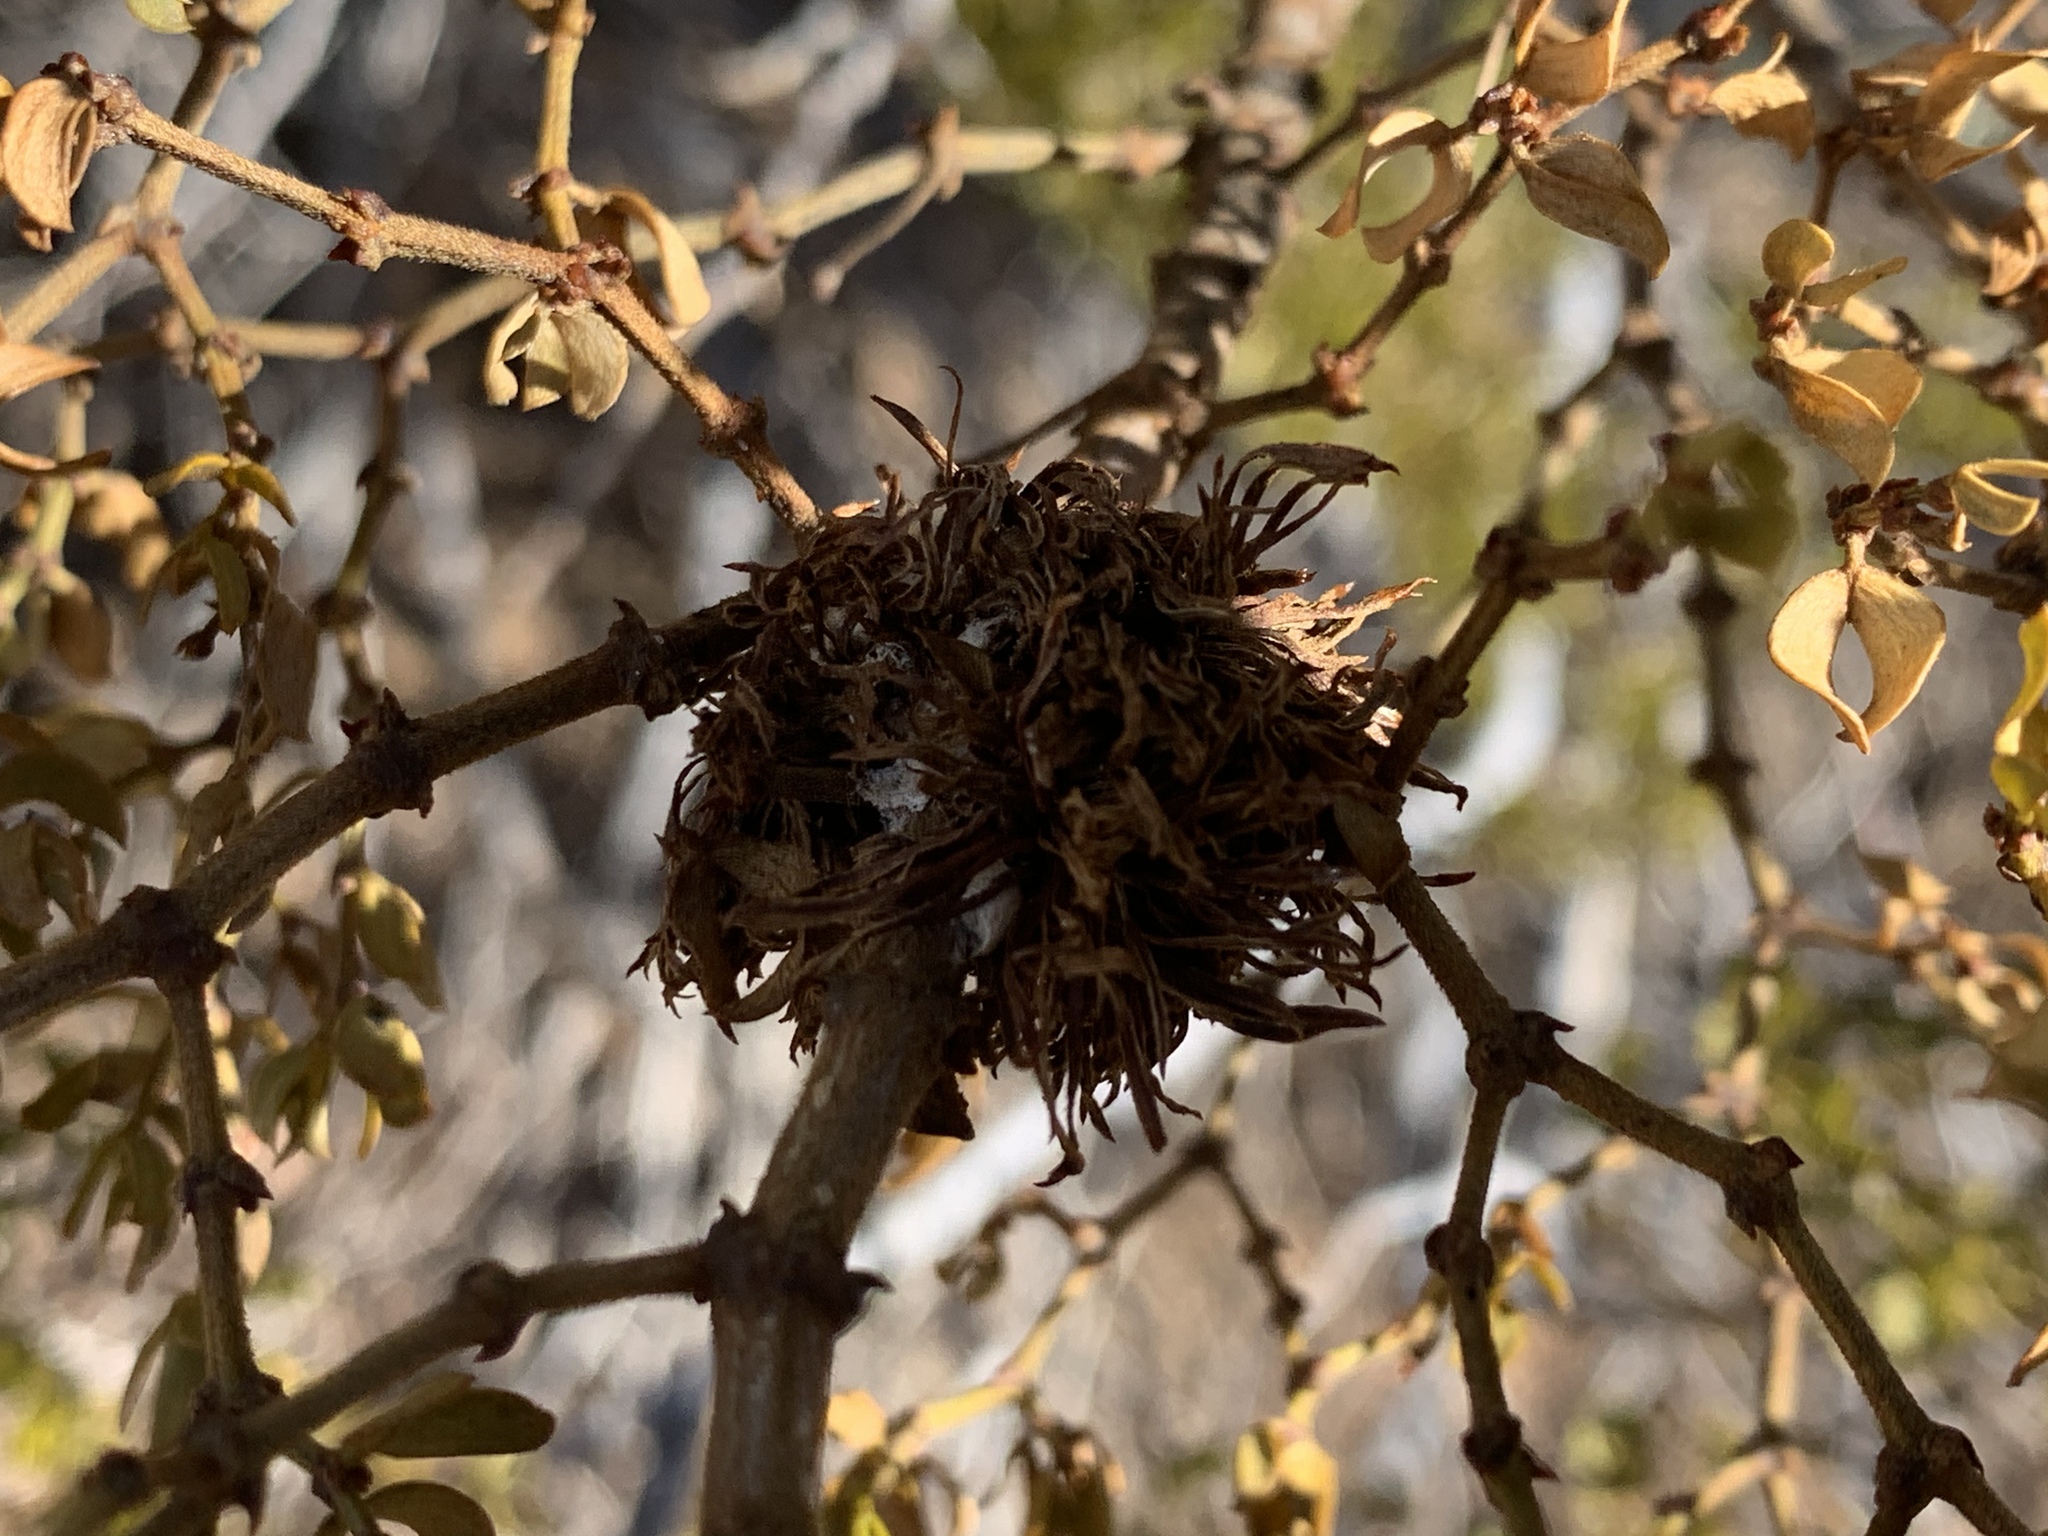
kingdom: Animalia
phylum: Arthropoda
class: Insecta
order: Diptera
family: Cecidomyiidae
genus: Asphondylia
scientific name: Asphondylia auripila
